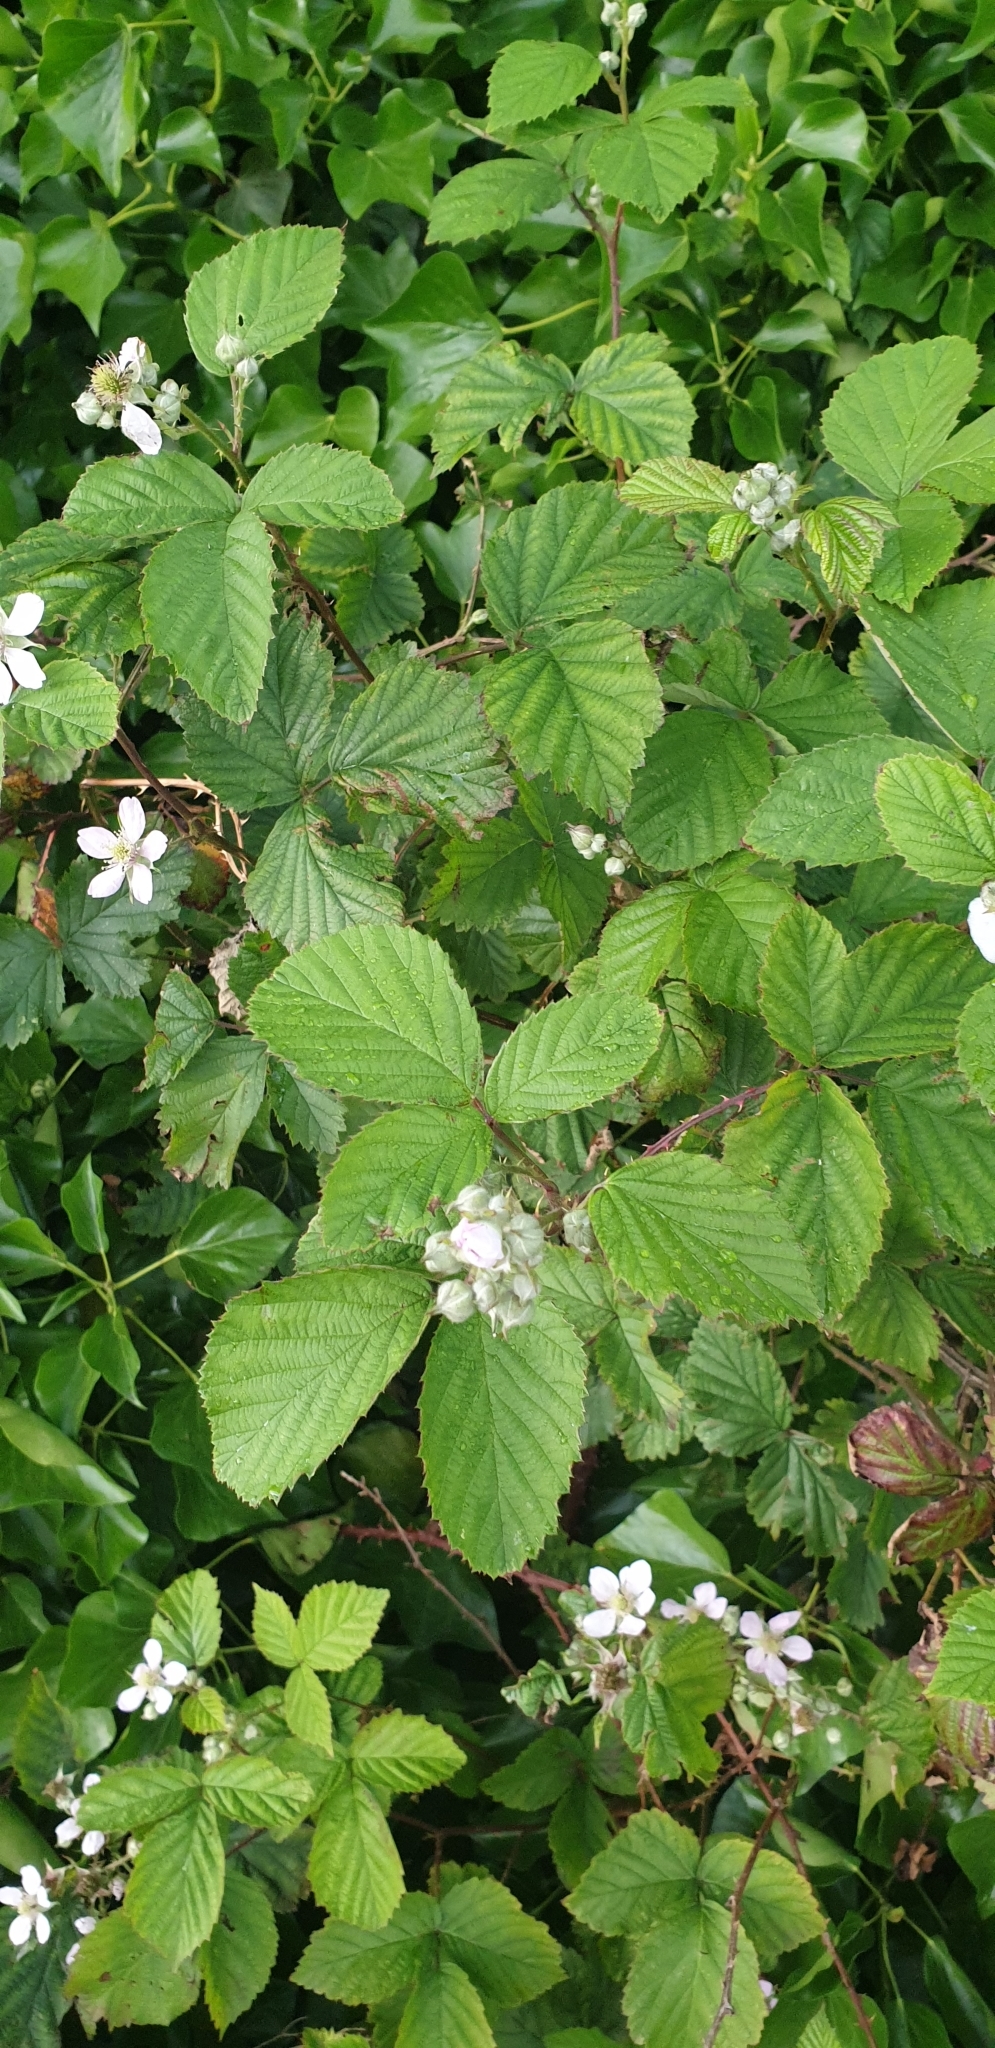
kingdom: Plantae
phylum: Tracheophyta
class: Magnoliopsida
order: Rosales
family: Rosaceae
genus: Rubus
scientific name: Rubus nemoralis
